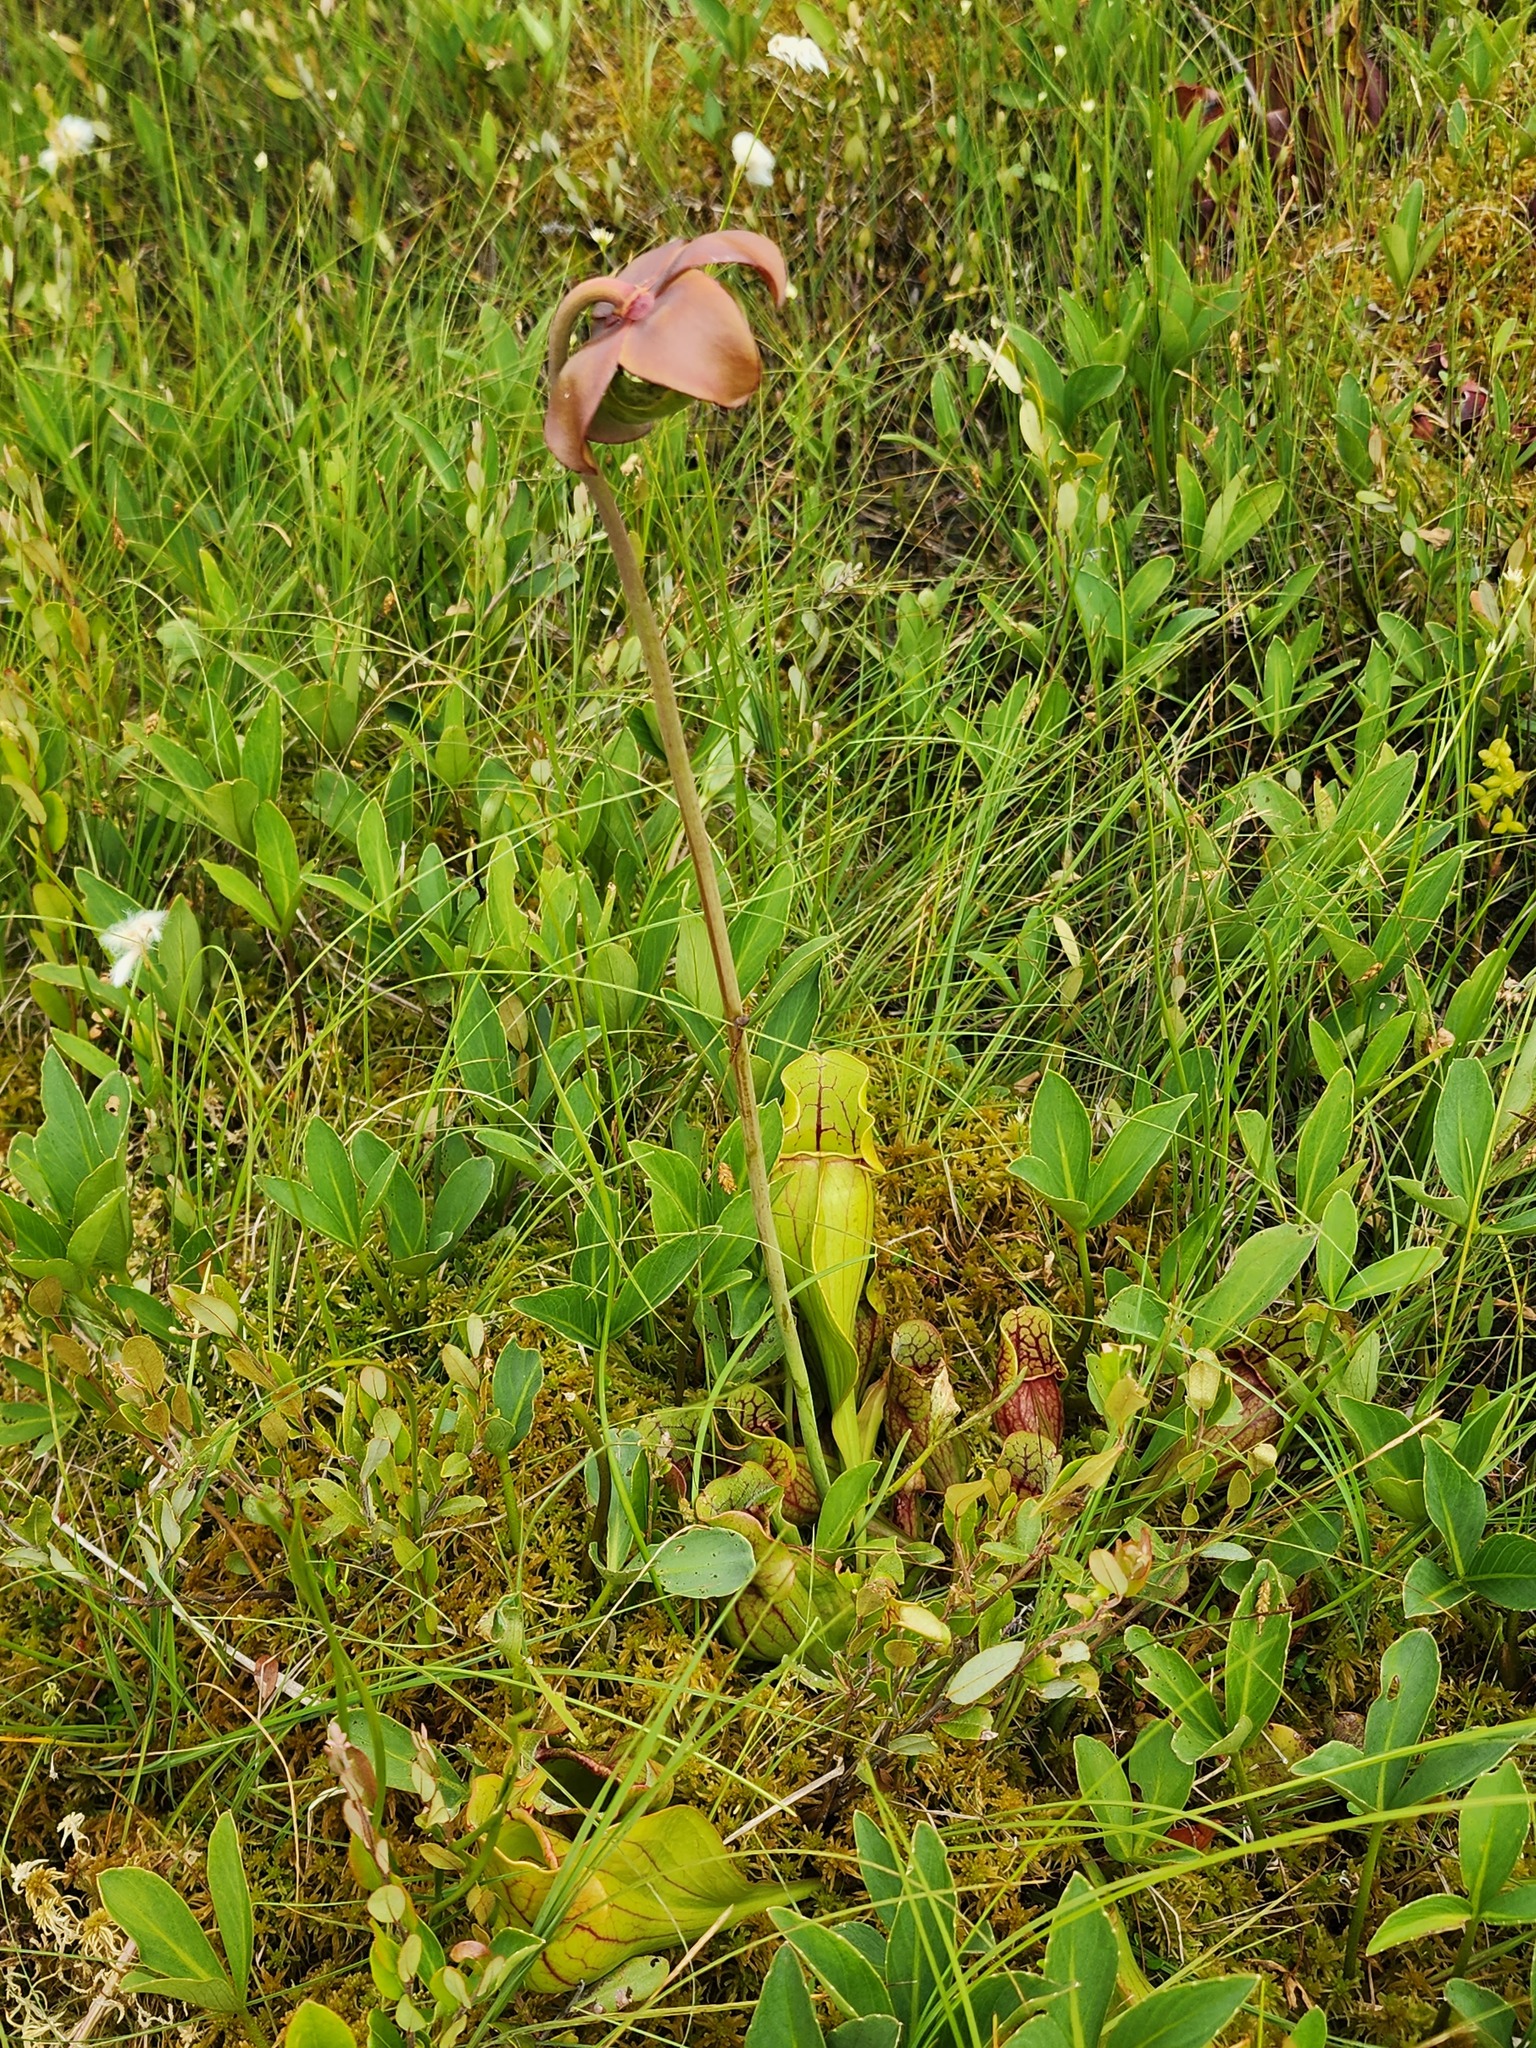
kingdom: Plantae
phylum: Tracheophyta
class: Magnoliopsida
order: Ericales
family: Sarraceniaceae
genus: Sarracenia
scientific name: Sarracenia purpurea
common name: Pitcherplant
